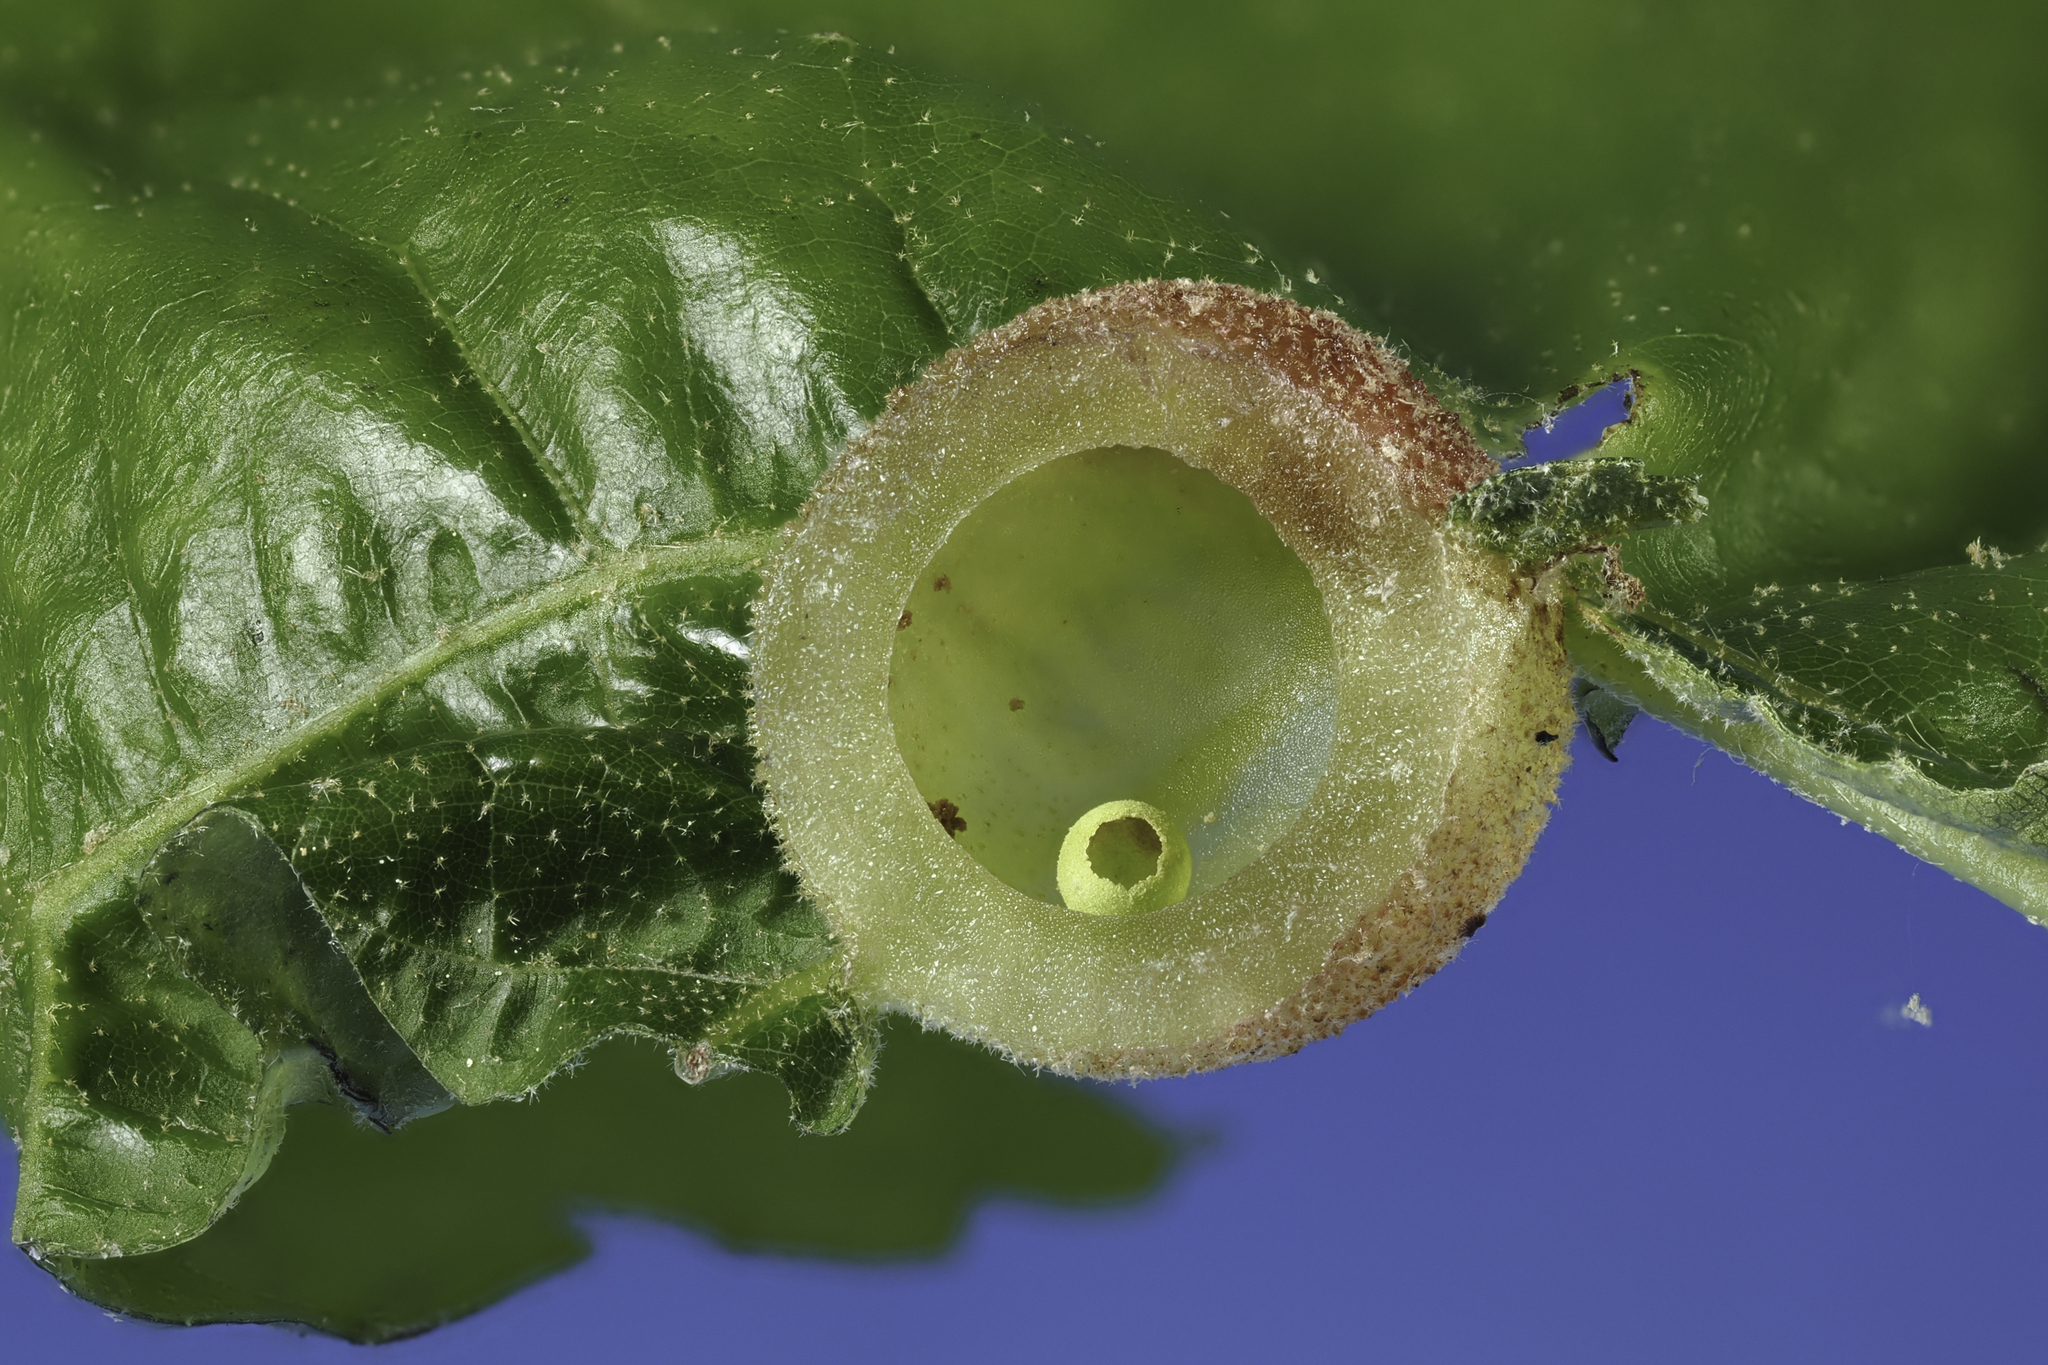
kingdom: Animalia
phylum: Arthropoda
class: Insecta
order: Hymenoptera
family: Cynipidae
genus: Dryocosmus
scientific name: Dryocosmus quercuspalustris
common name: Succulent oak gall wasp
